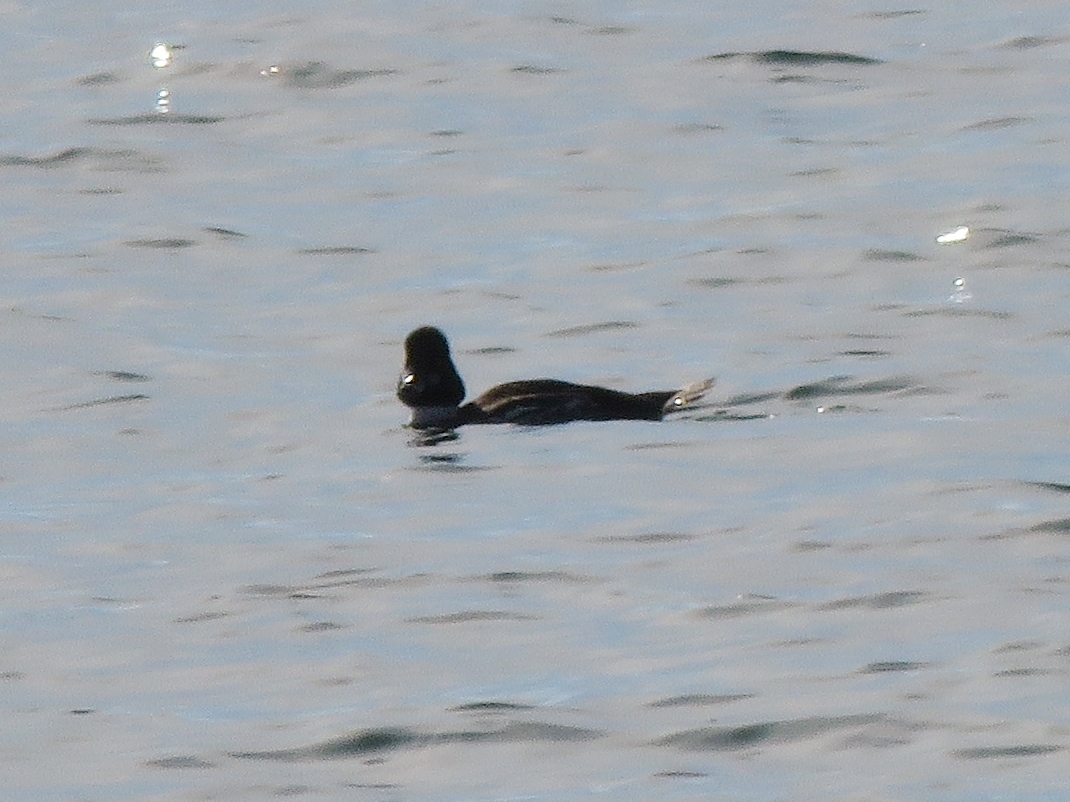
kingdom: Animalia
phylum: Chordata
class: Aves
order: Anseriformes
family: Anatidae
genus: Bucephala
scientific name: Bucephala clangula
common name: Common goldeneye
